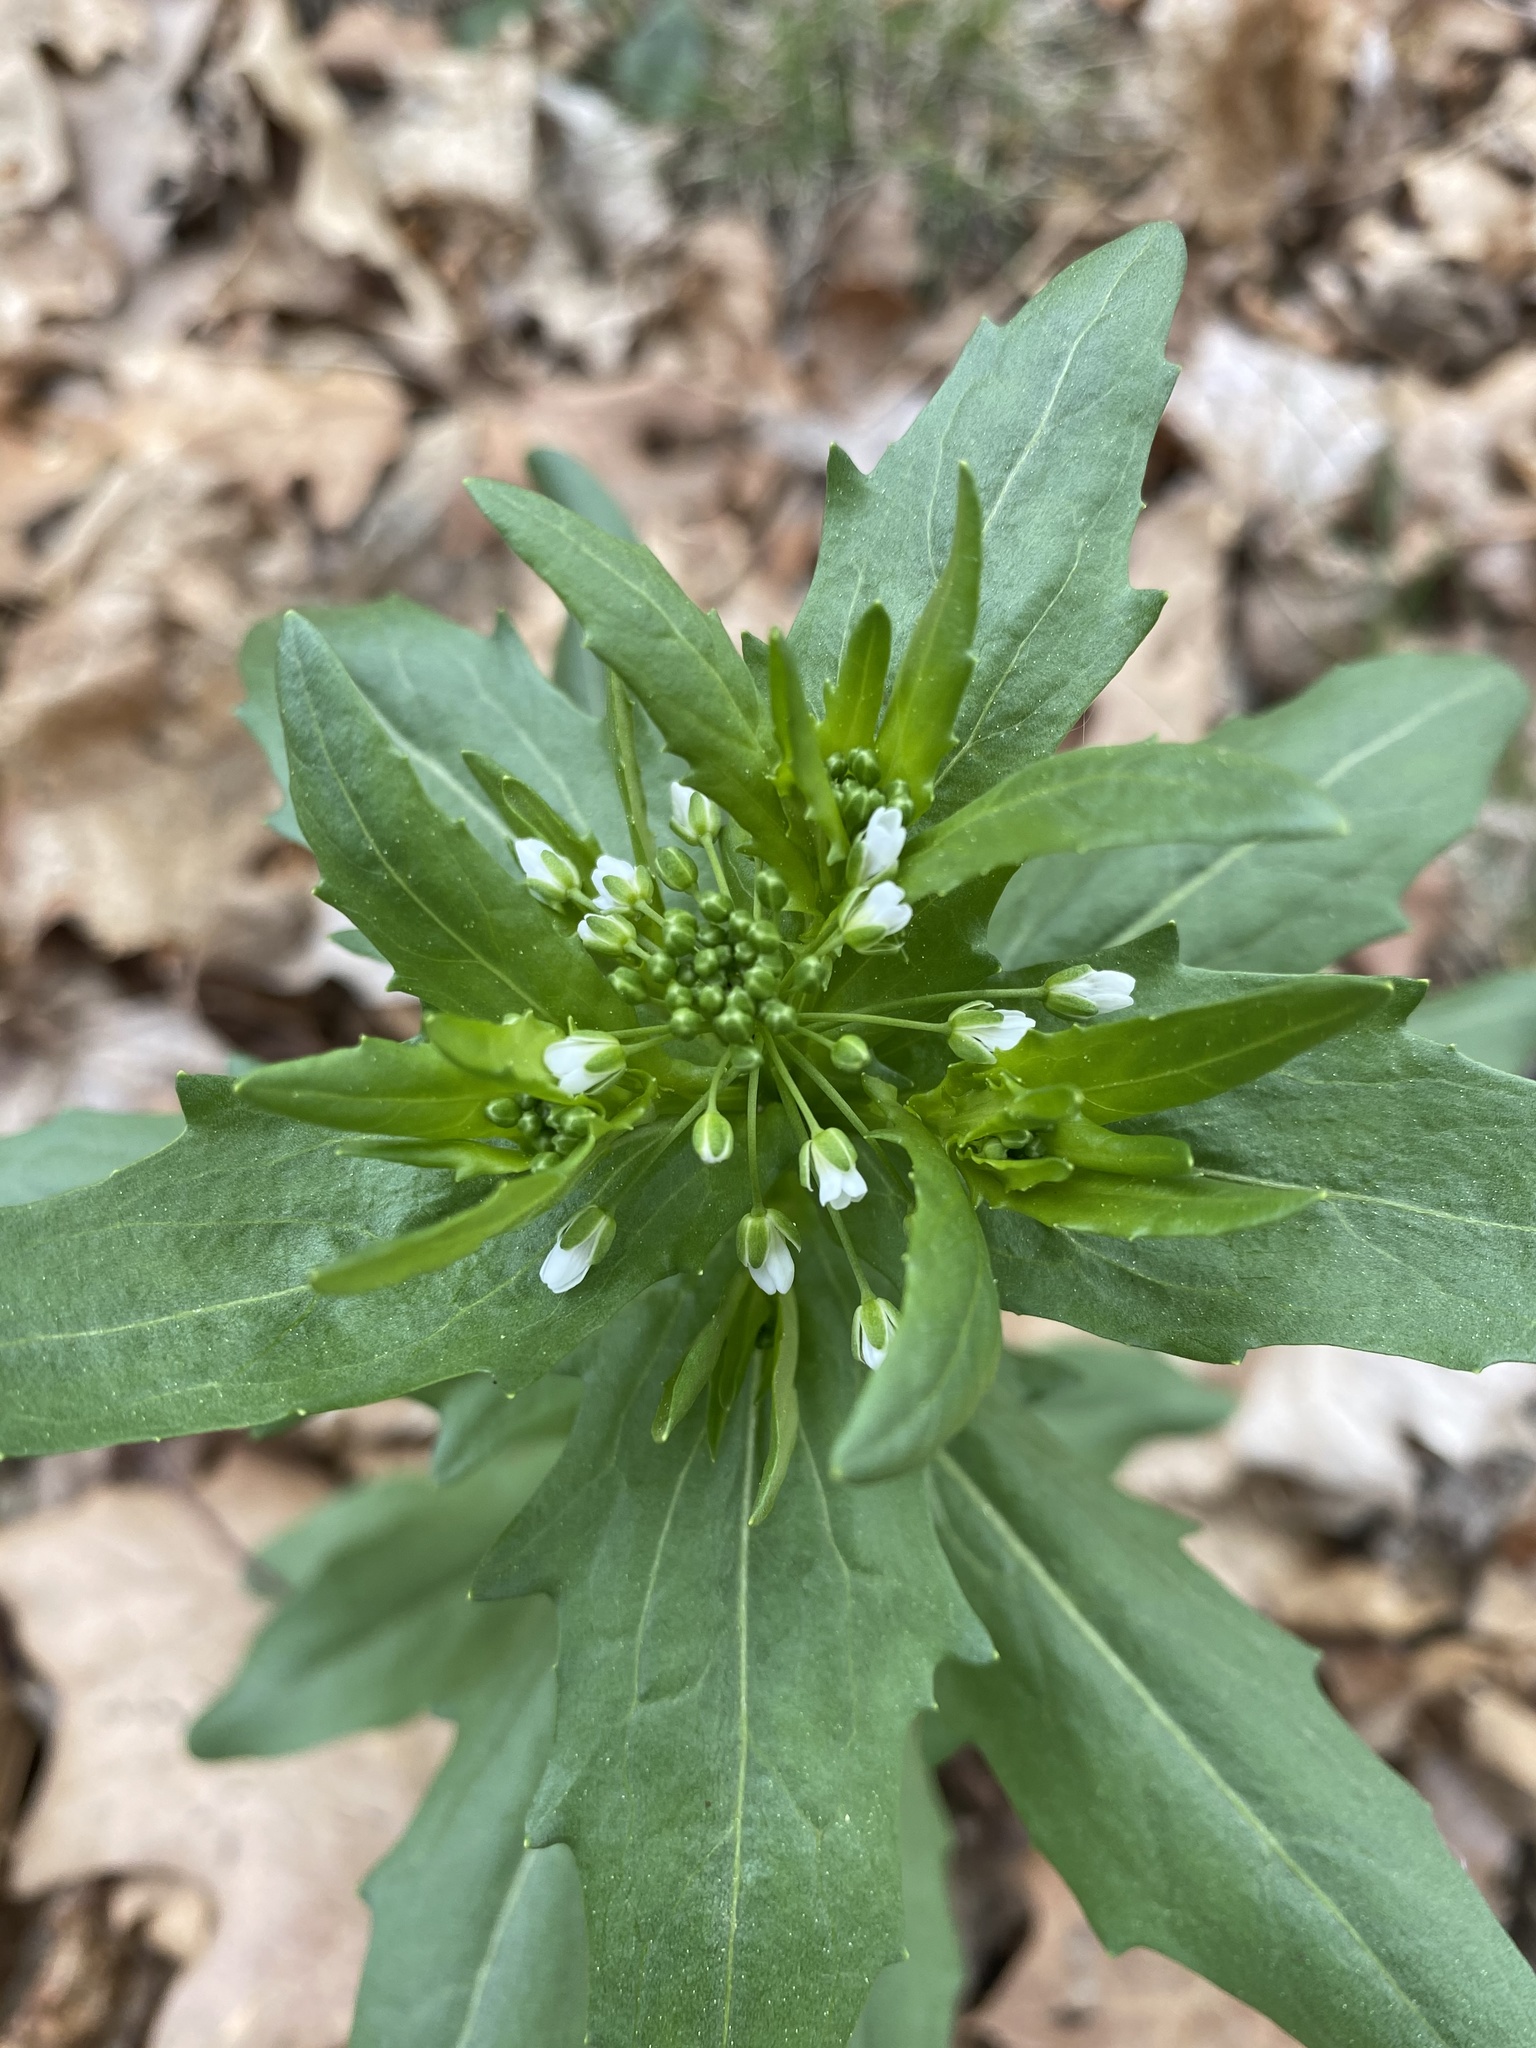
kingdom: Plantae
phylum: Tracheophyta
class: Magnoliopsida
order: Brassicales
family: Brassicaceae
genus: Thlaspi
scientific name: Thlaspi arvense
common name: Field pennycress
